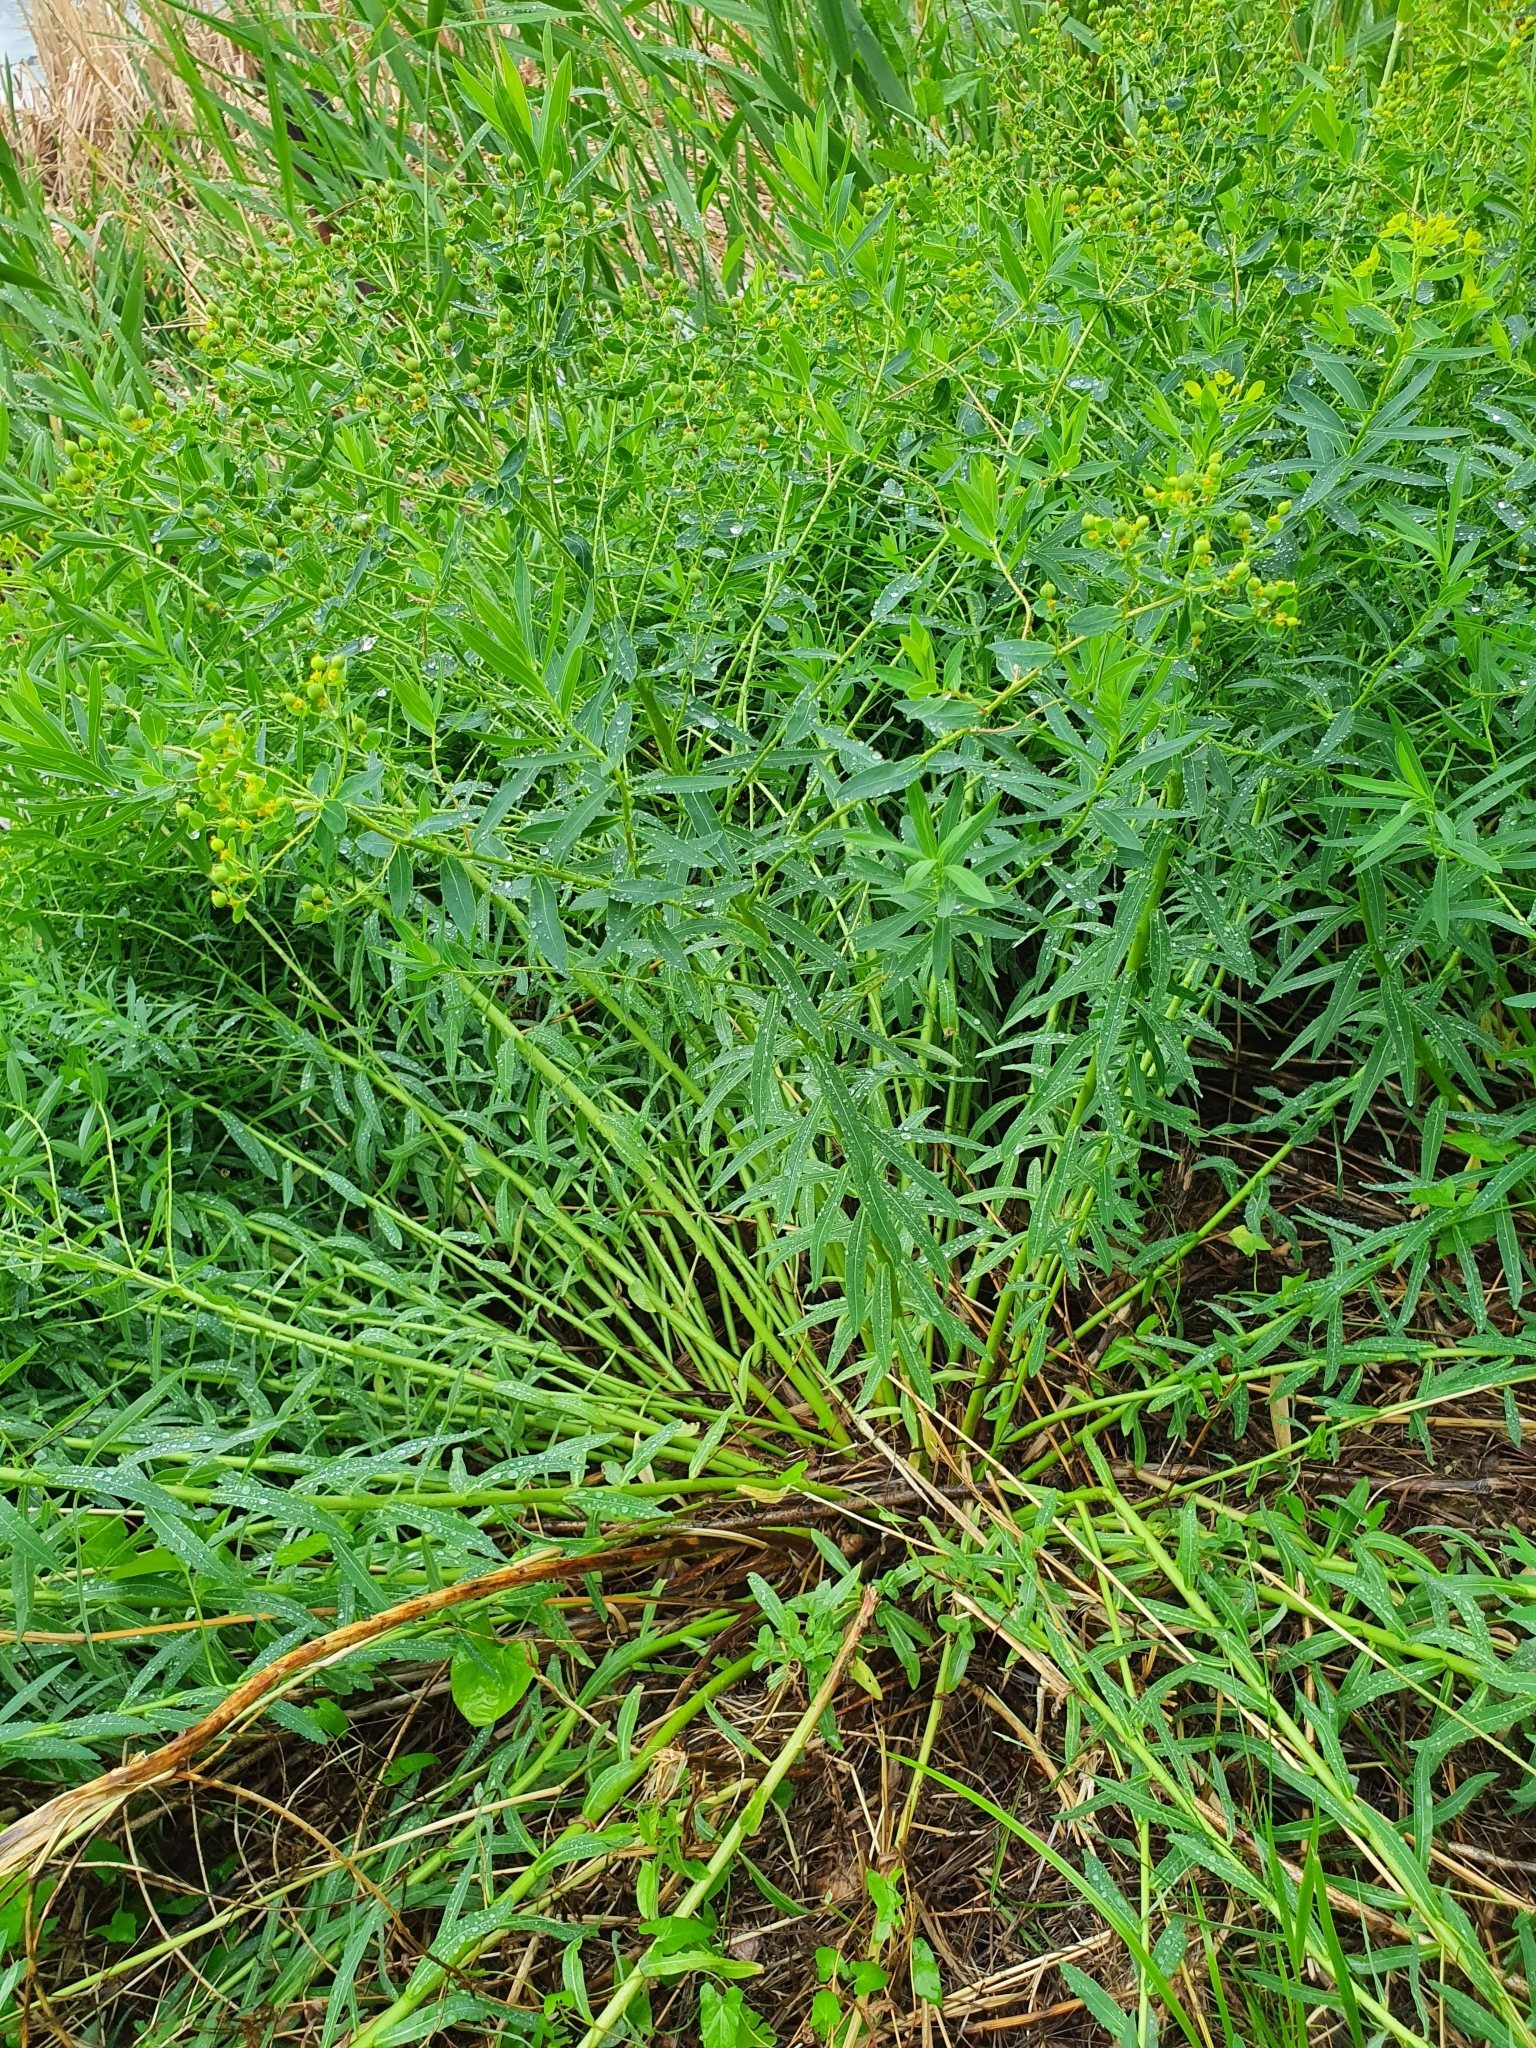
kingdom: Plantae
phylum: Tracheophyta
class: Magnoliopsida
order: Malpighiales
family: Euphorbiaceae
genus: Euphorbia
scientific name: Euphorbia palustris
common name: Marsh spurge
